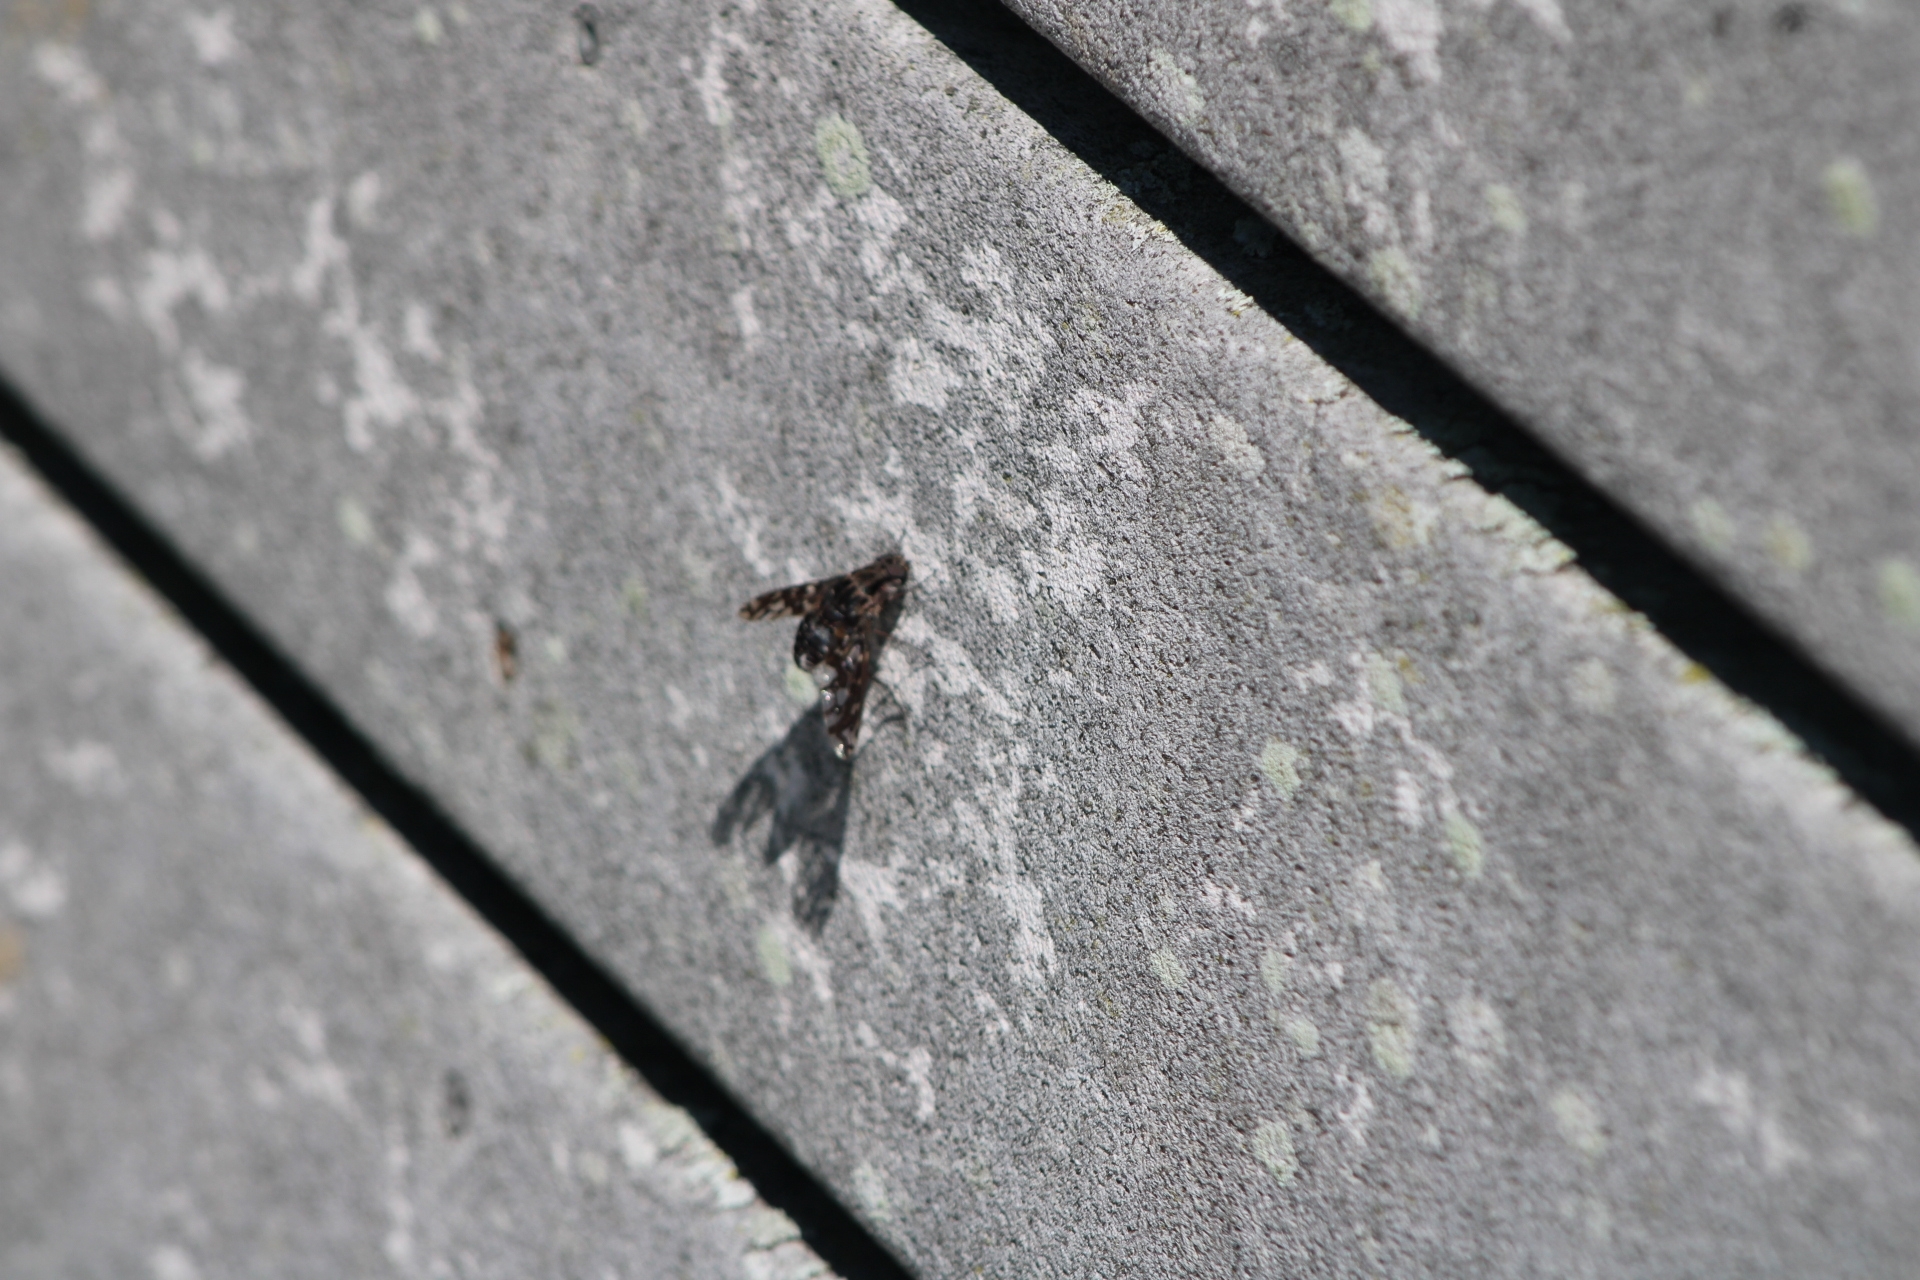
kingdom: Animalia
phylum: Arthropoda
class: Insecta
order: Diptera
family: Bombyliidae
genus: Xenox
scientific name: Xenox tigrinus
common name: Tiger bee fly
